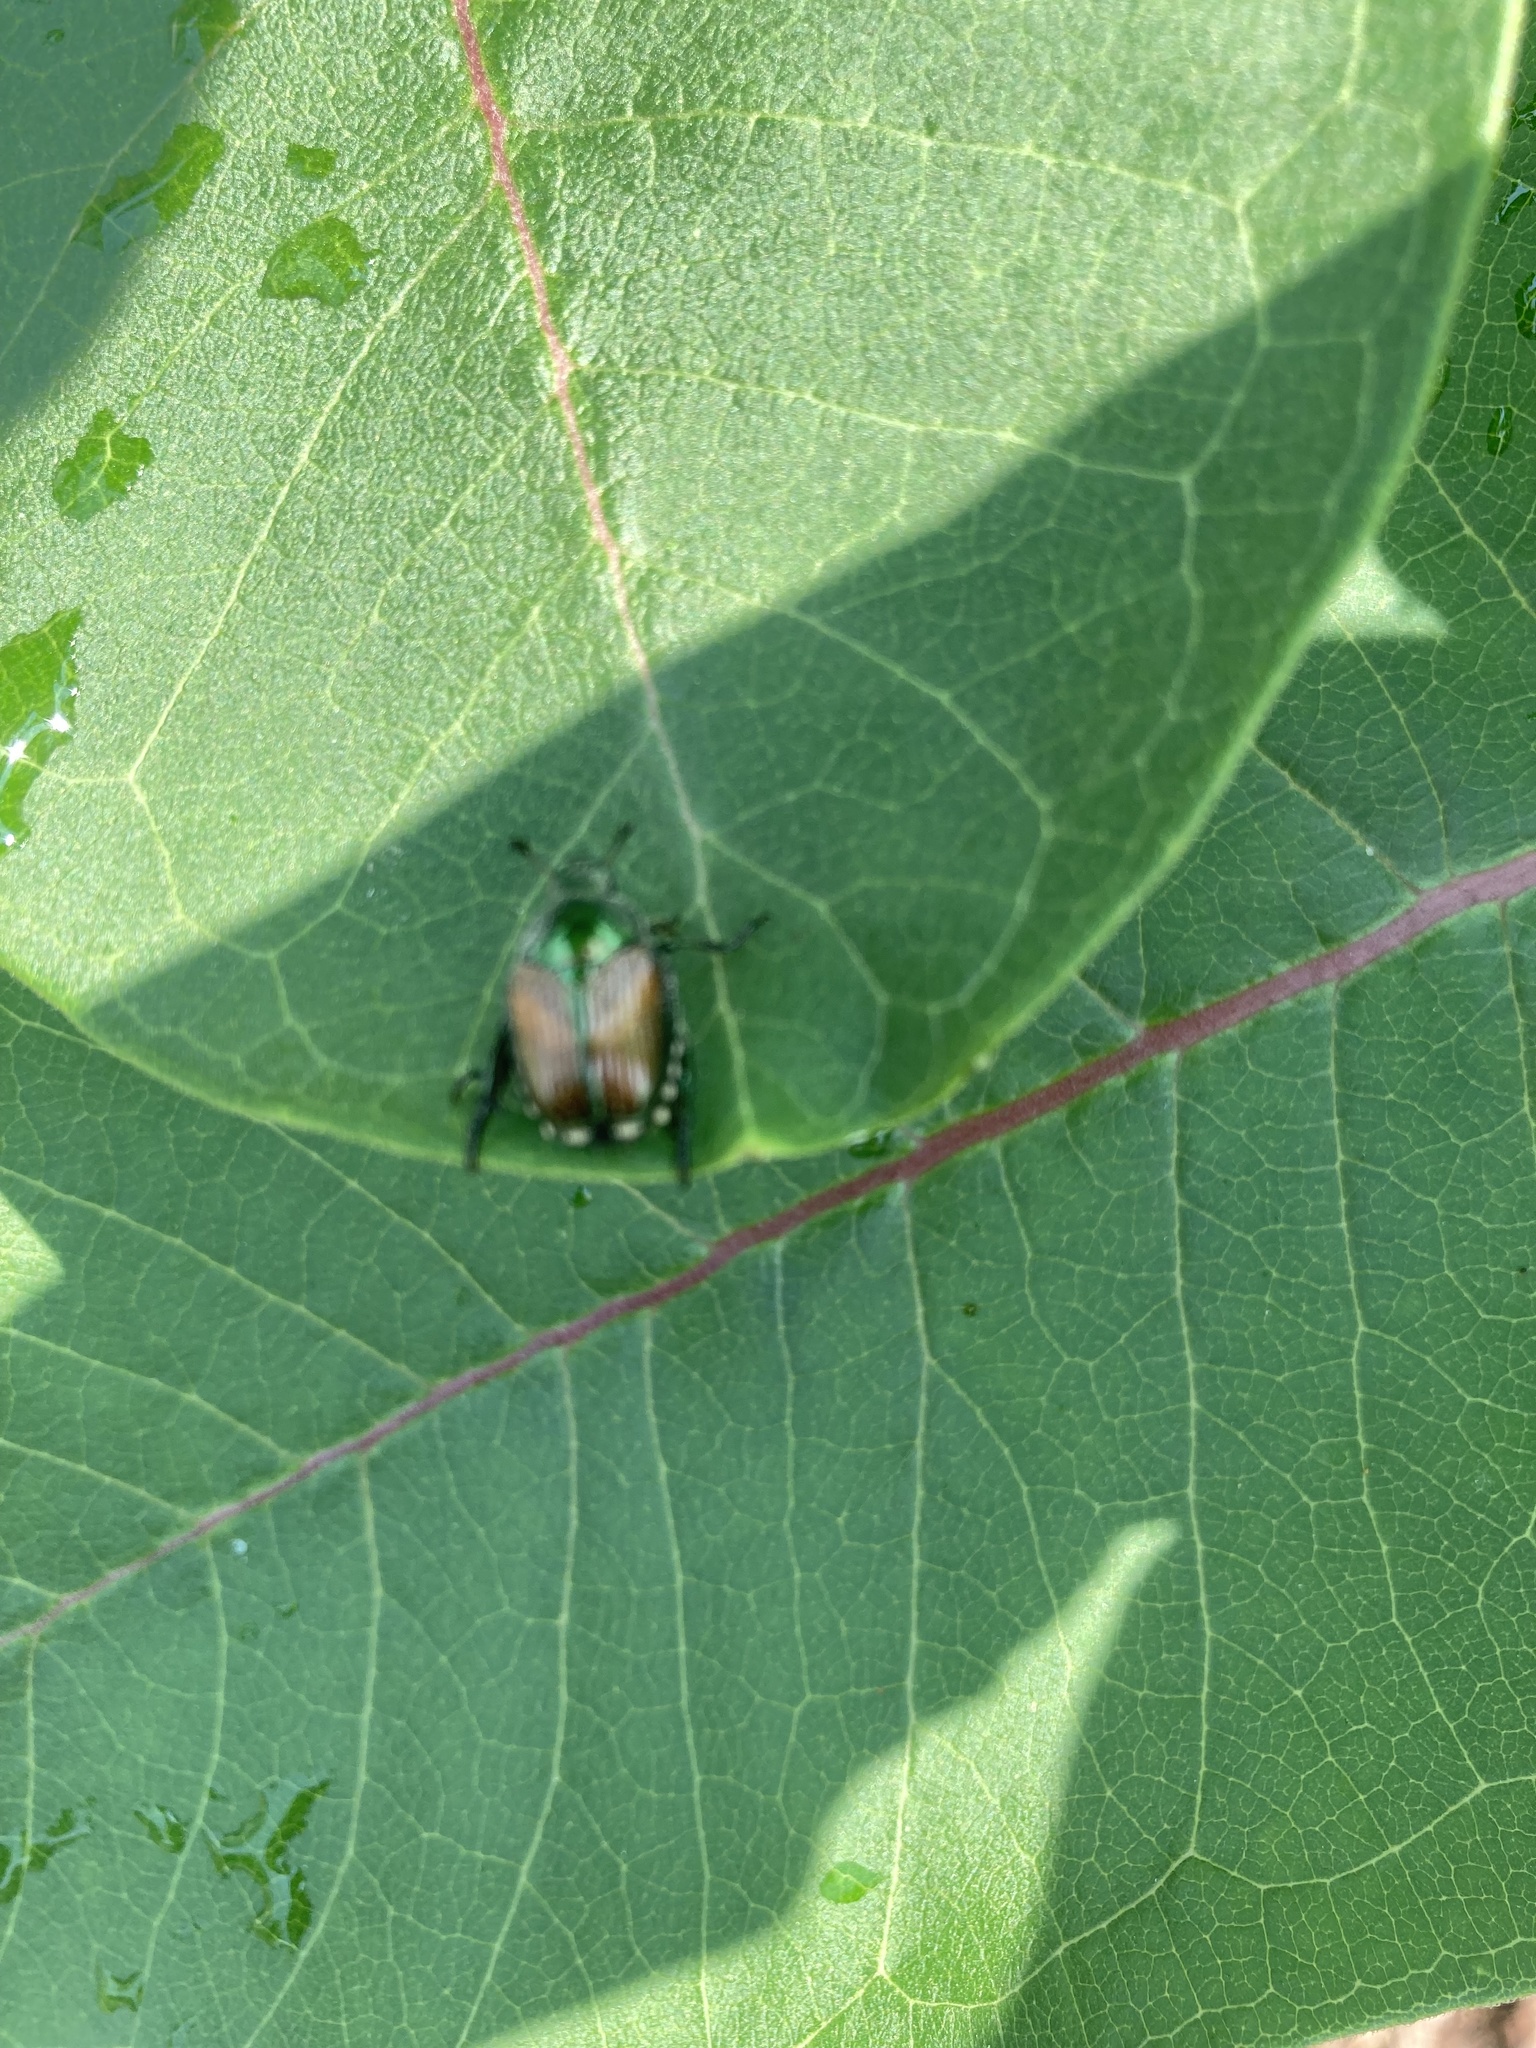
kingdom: Animalia
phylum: Arthropoda
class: Insecta
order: Coleoptera
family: Scarabaeidae
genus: Popillia
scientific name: Popillia japonica
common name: Japanese beetle
